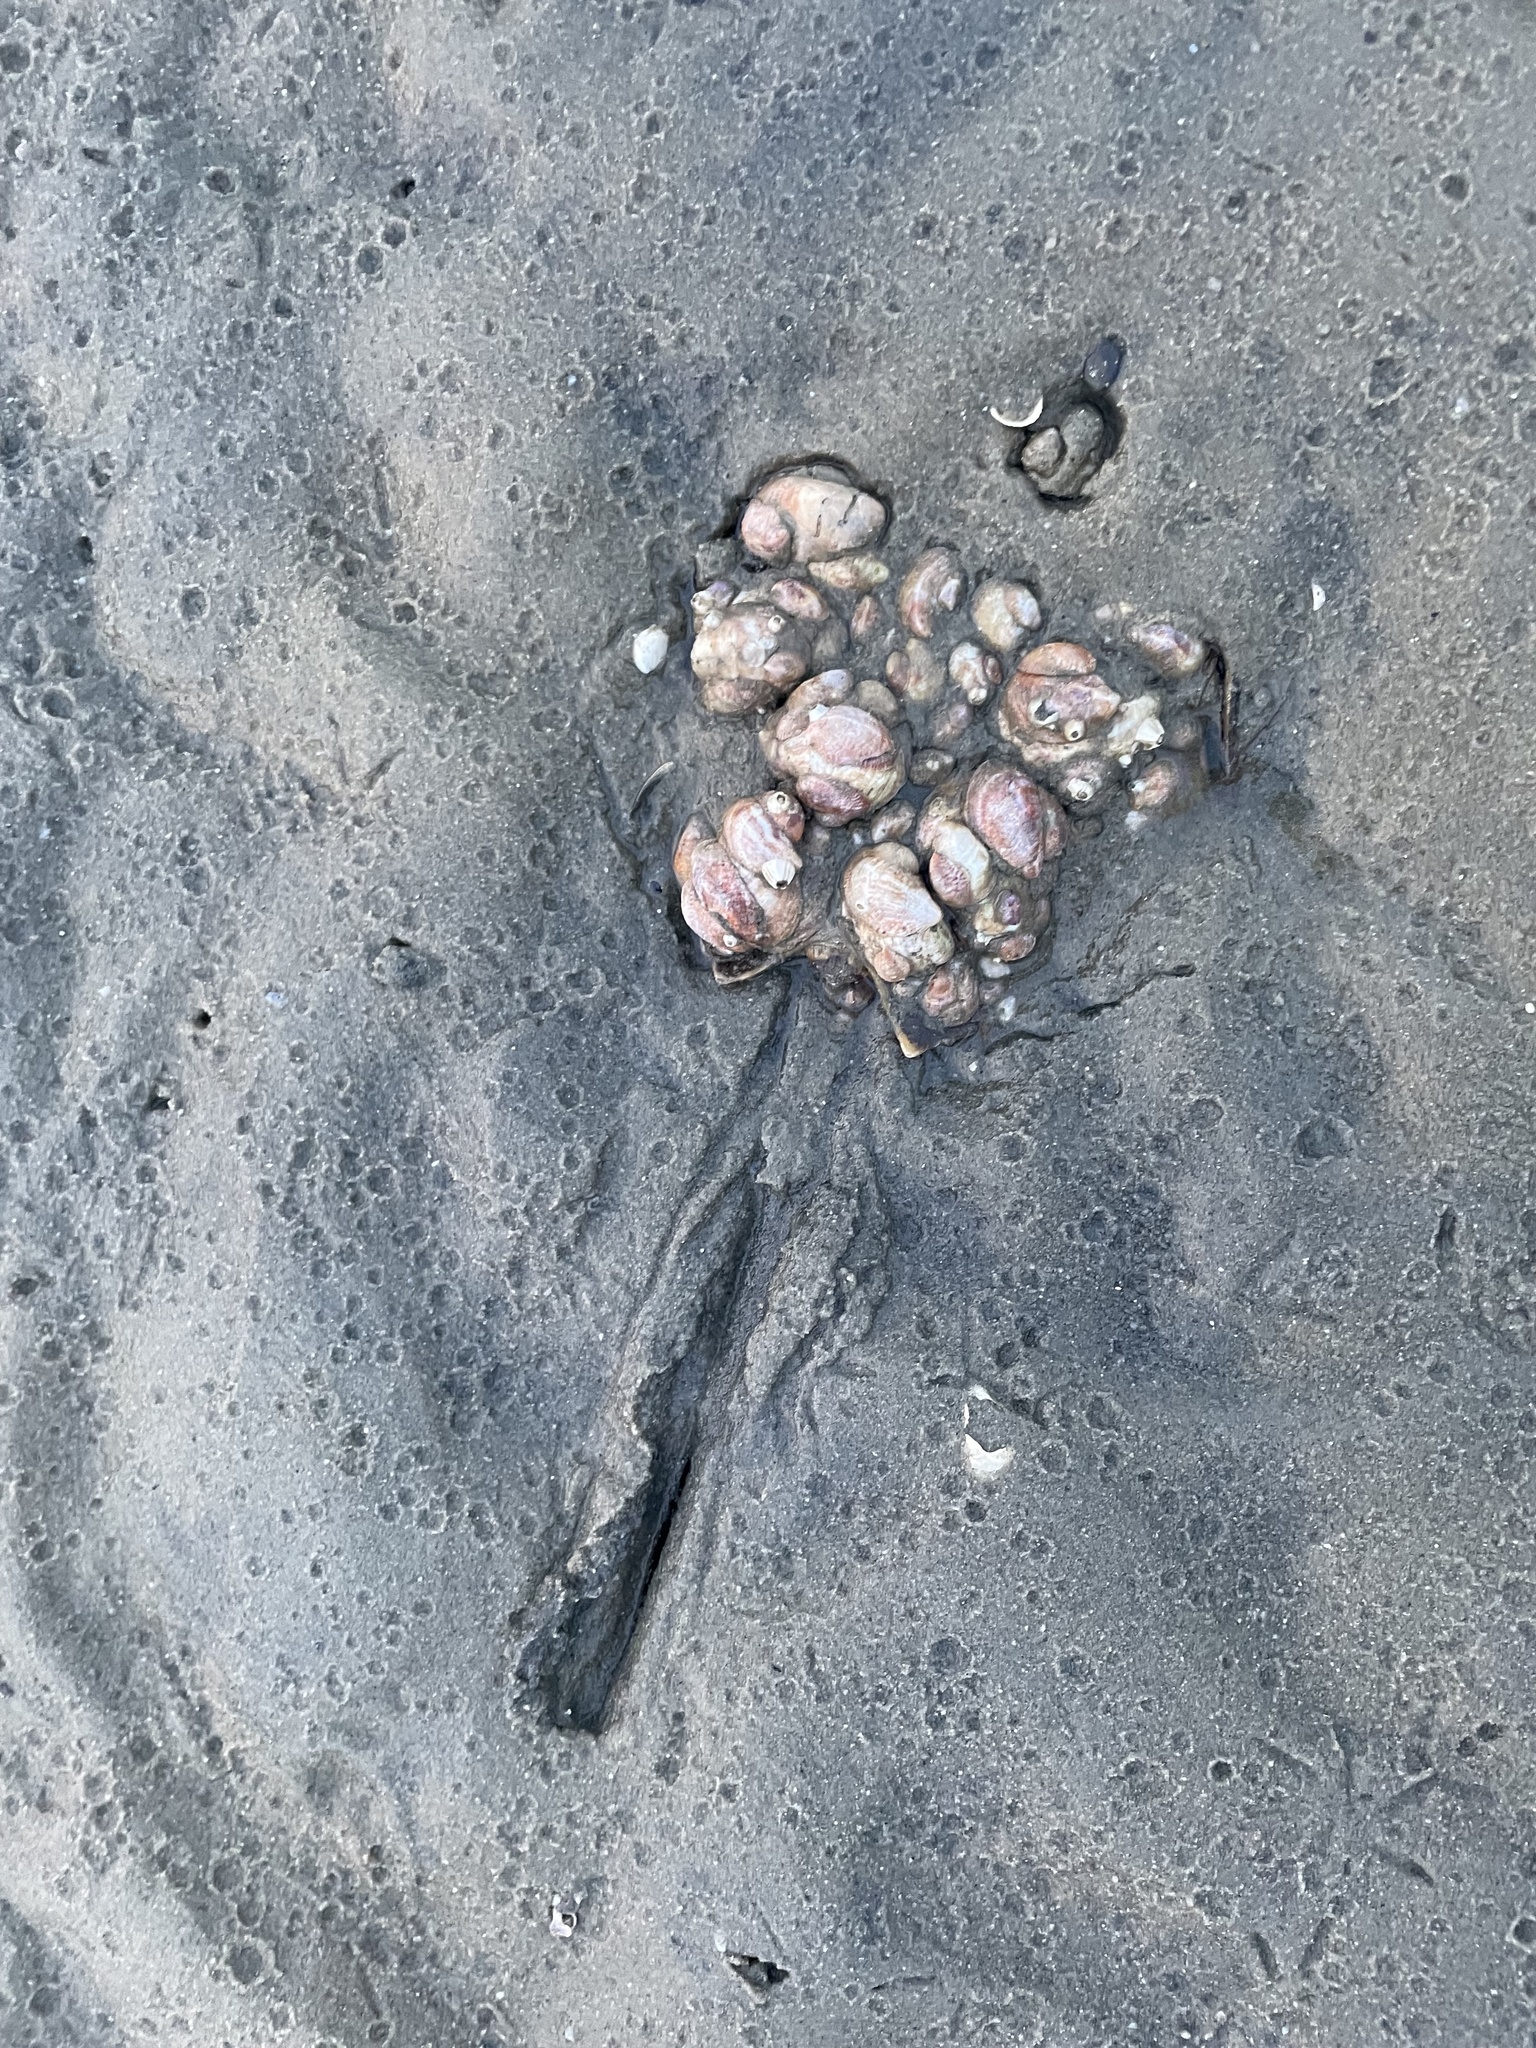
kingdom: Animalia
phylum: Arthropoda
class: Merostomata
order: Xiphosurida
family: Limulidae
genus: Limulus
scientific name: Limulus polyphemus
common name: Horseshoe crab
